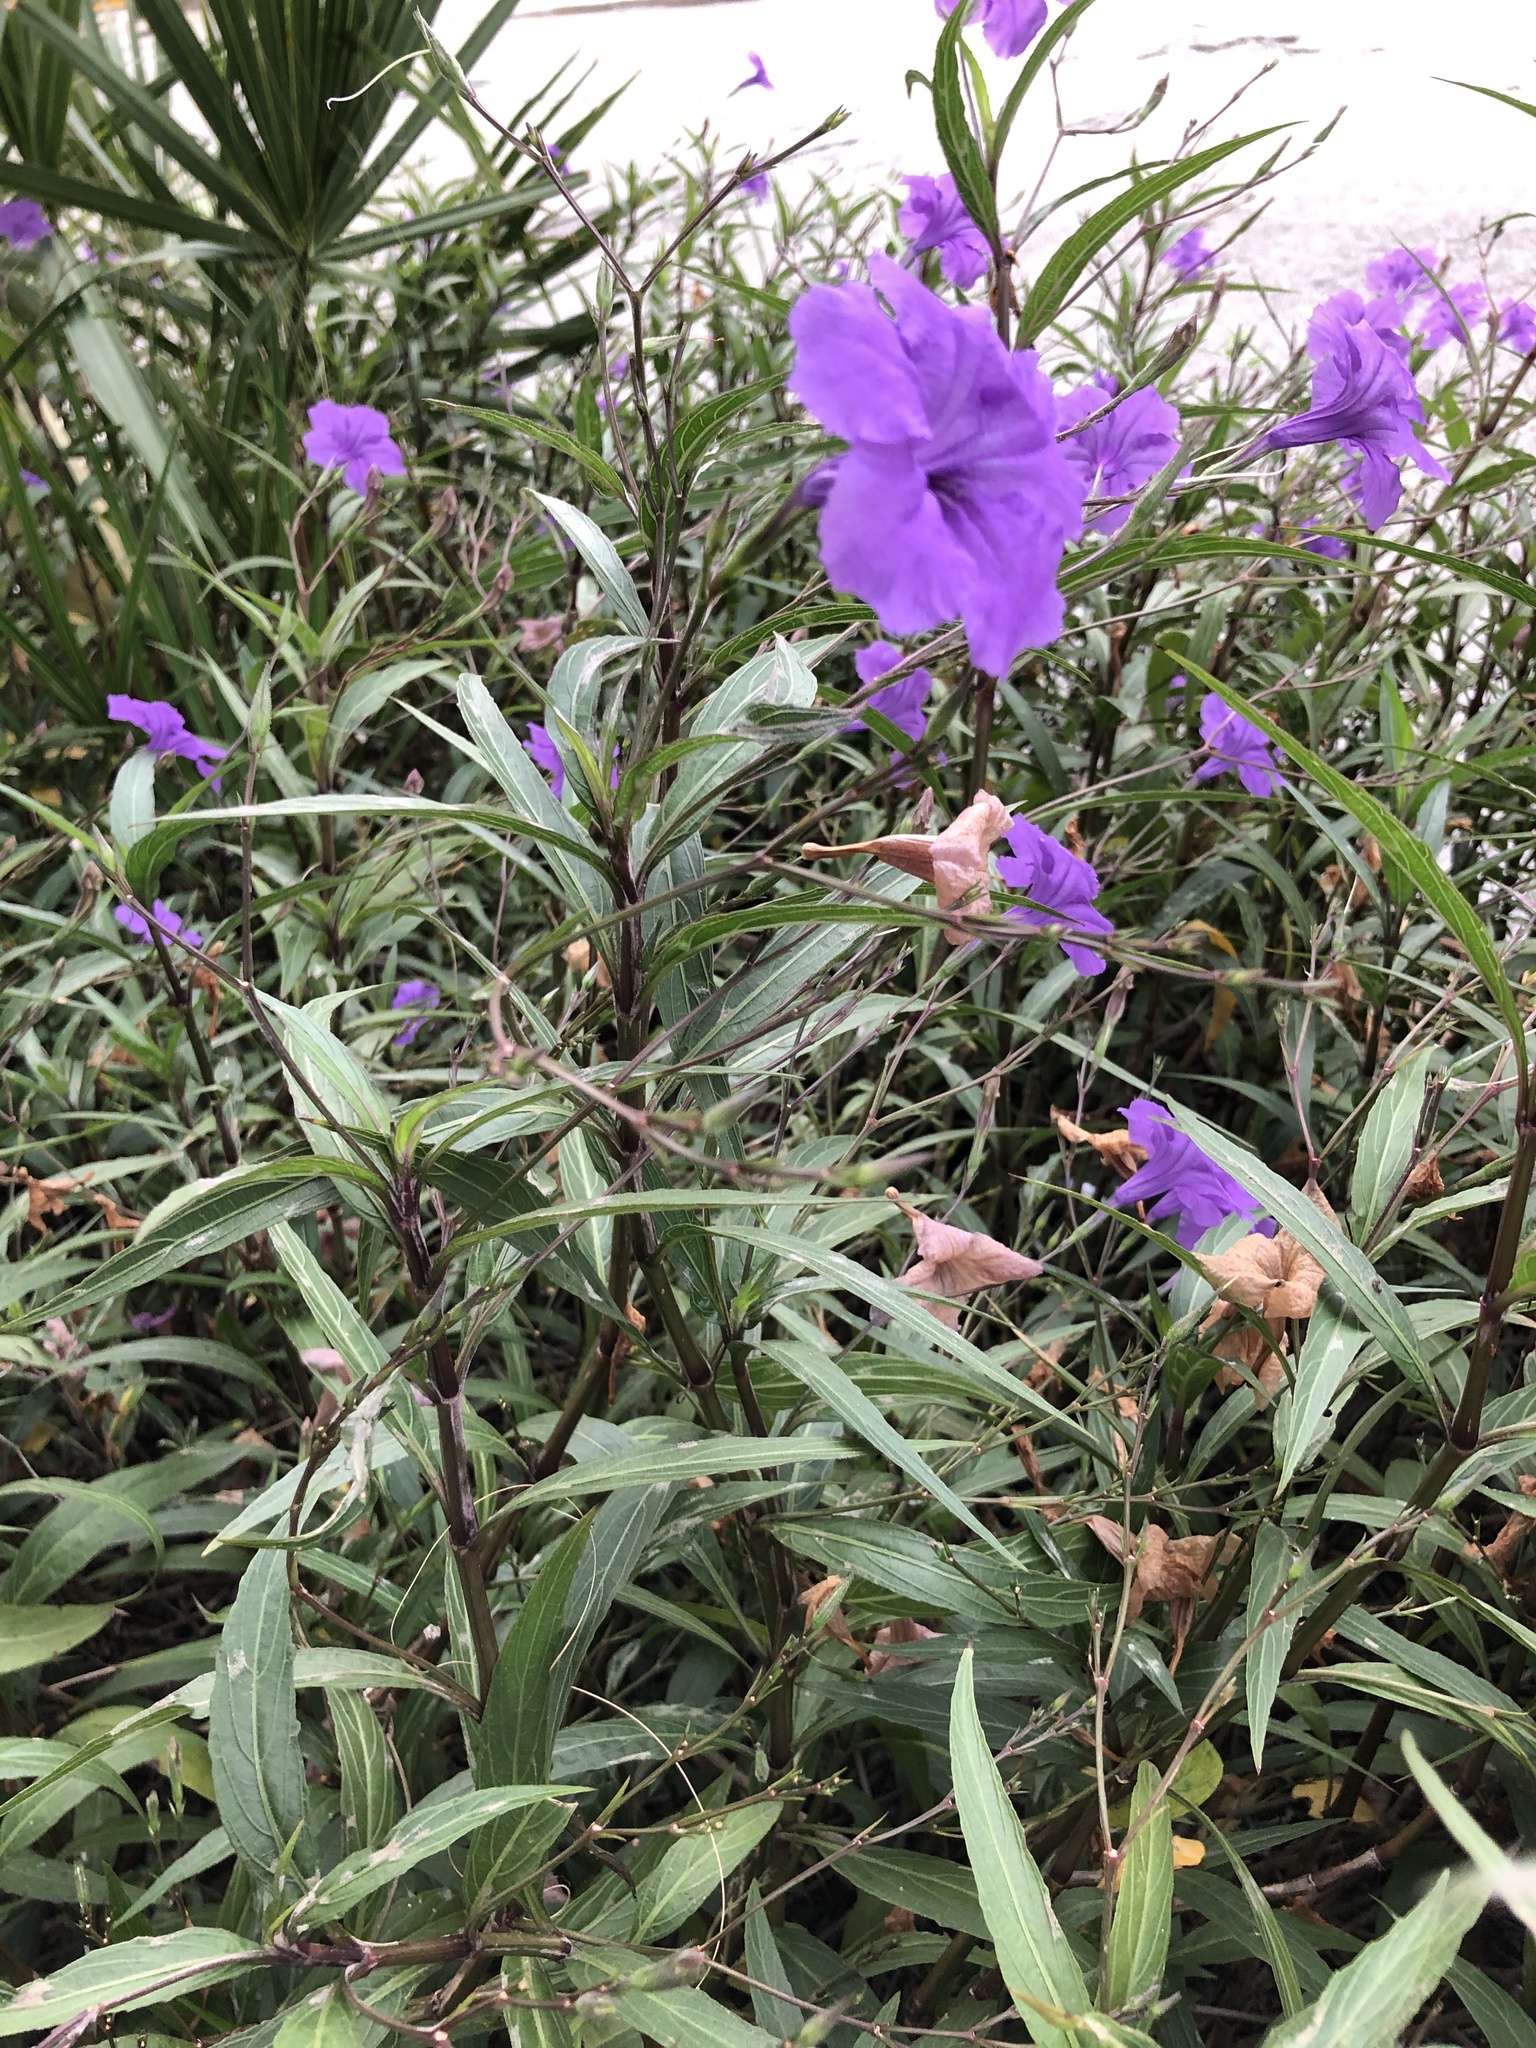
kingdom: Plantae
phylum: Tracheophyta
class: Magnoliopsida
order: Lamiales
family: Acanthaceae
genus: Ruellia
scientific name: Ruellia simplex
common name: Softseed wild petunia
